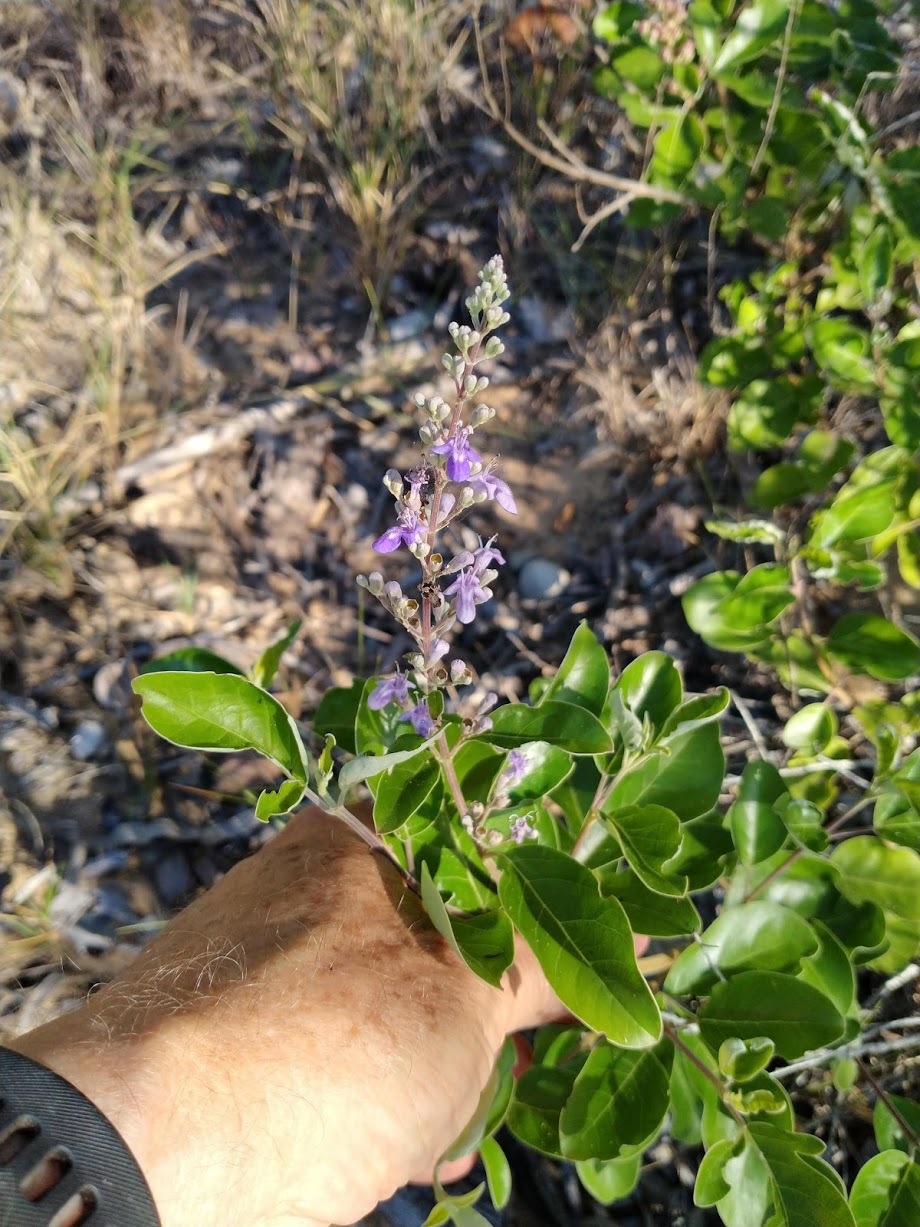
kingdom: Plantae
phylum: Tracheophyta
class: Magnoliopsida
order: Lamiales
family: Lamiaceae
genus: Vitex
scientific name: Vitex trifolia
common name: Simpleleaf chastetree
